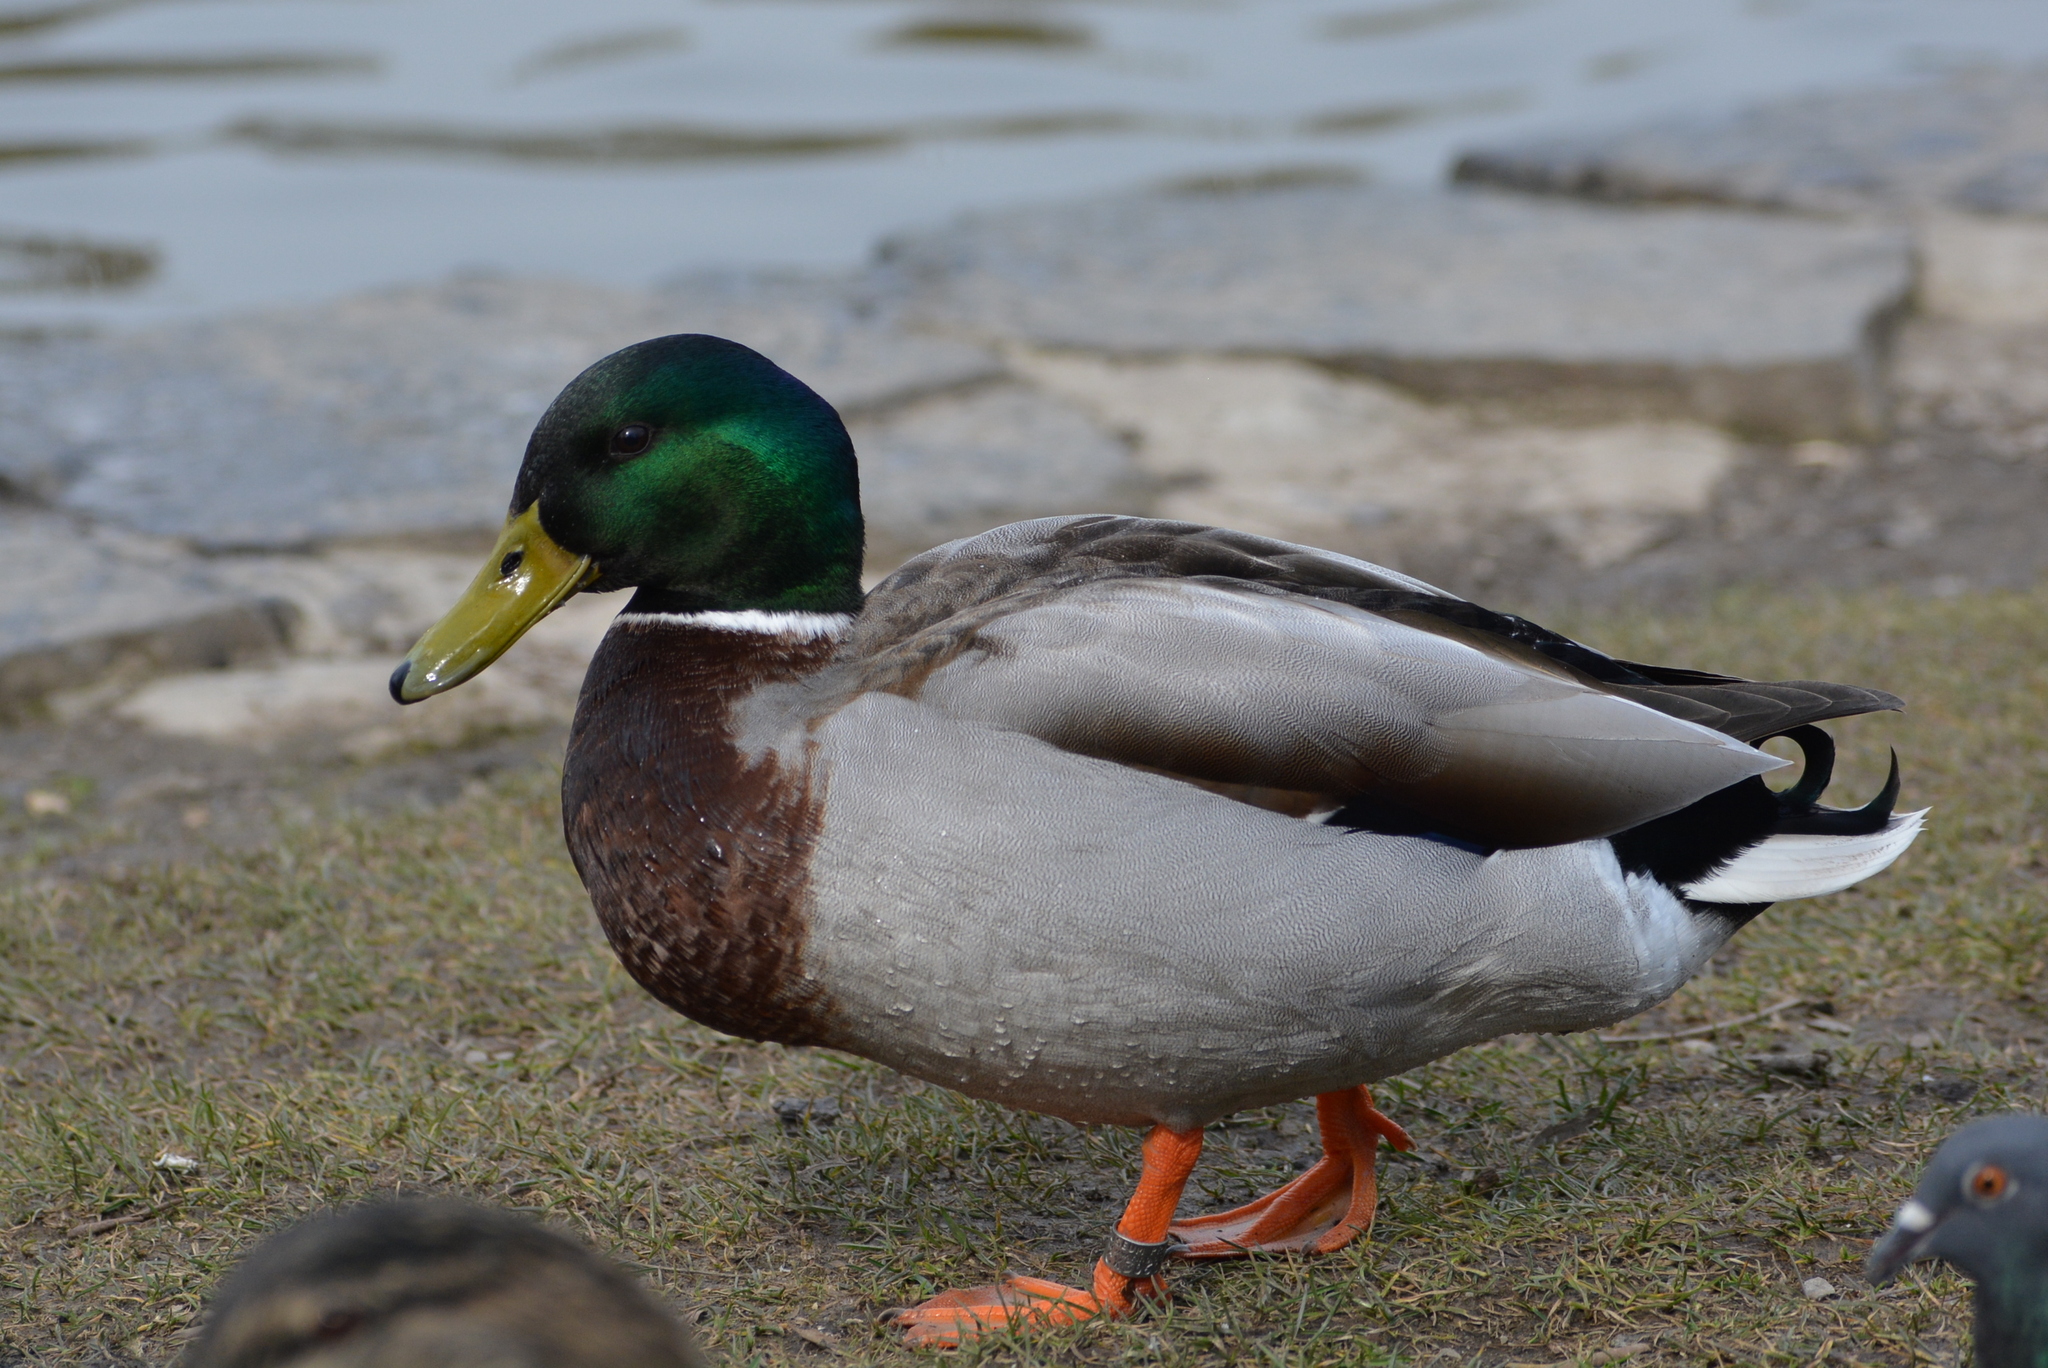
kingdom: Animalia
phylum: Chordata
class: Aves
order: Anseriformes
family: Anatidae
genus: Anas
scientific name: Anas platyrhynchos
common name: Mallard
